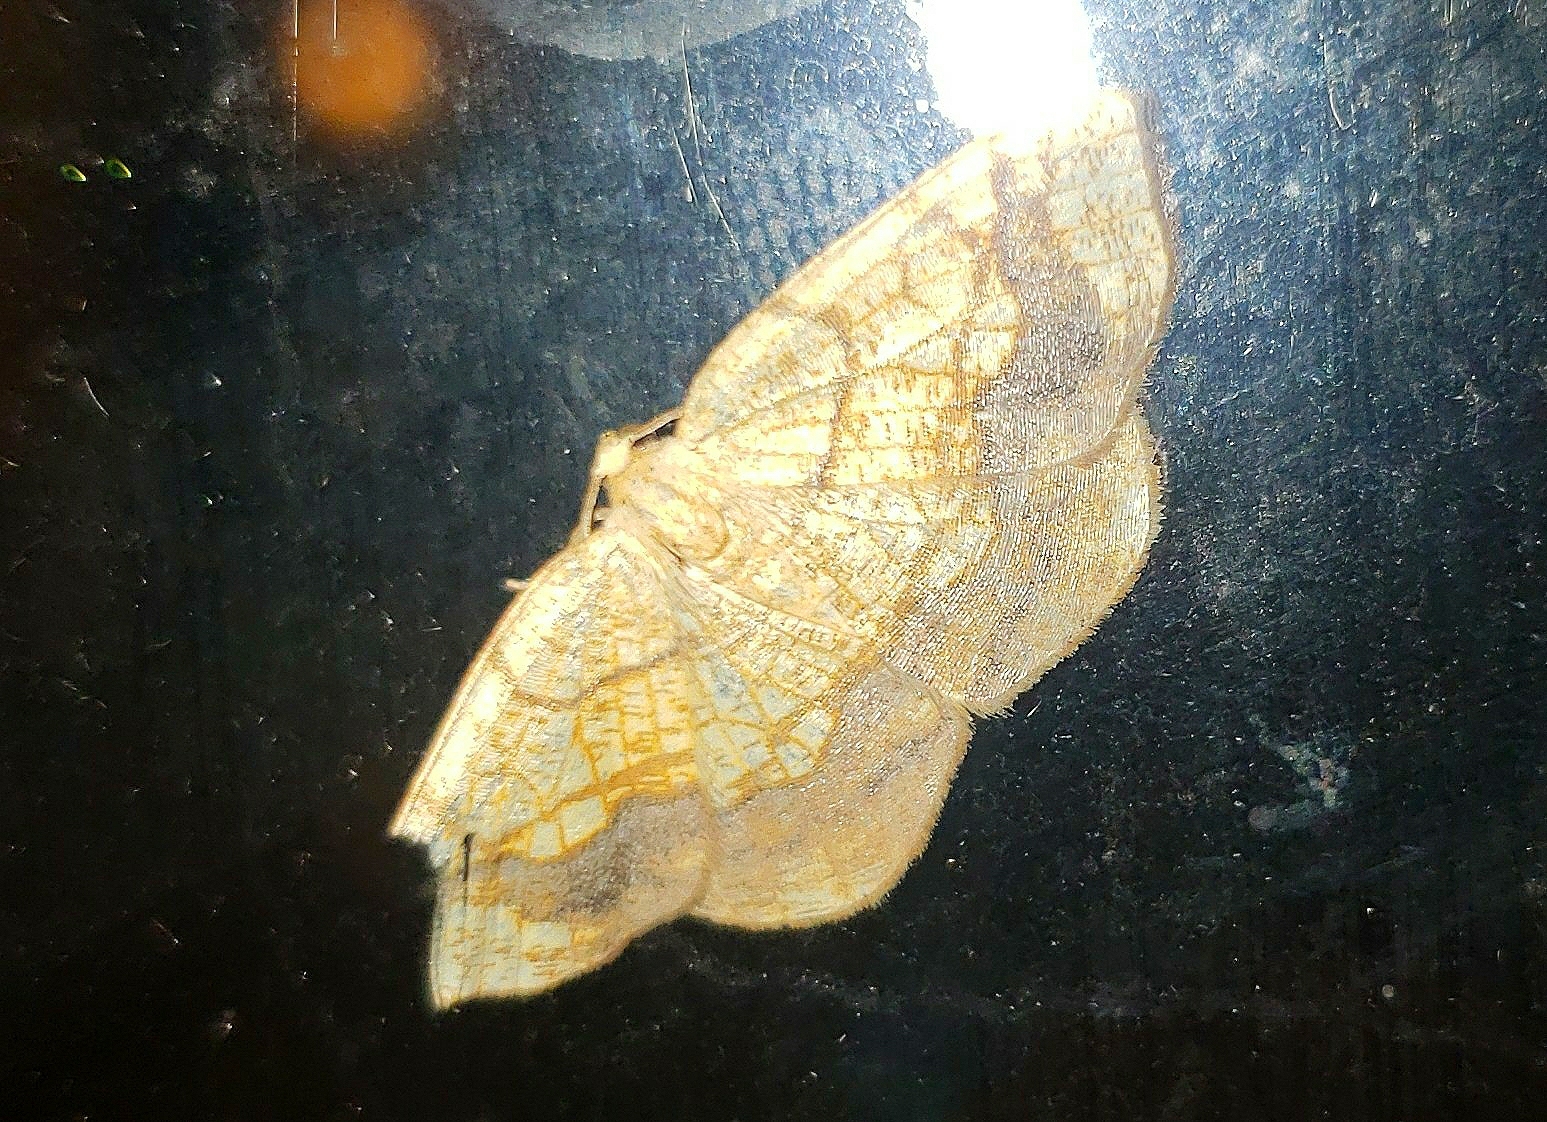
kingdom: Animalia
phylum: Arthropoda
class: Insecta
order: Lepidoptera
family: Geometridae
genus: Nematocampa
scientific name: Nematocampa resistaria
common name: Horned spanworm moth
